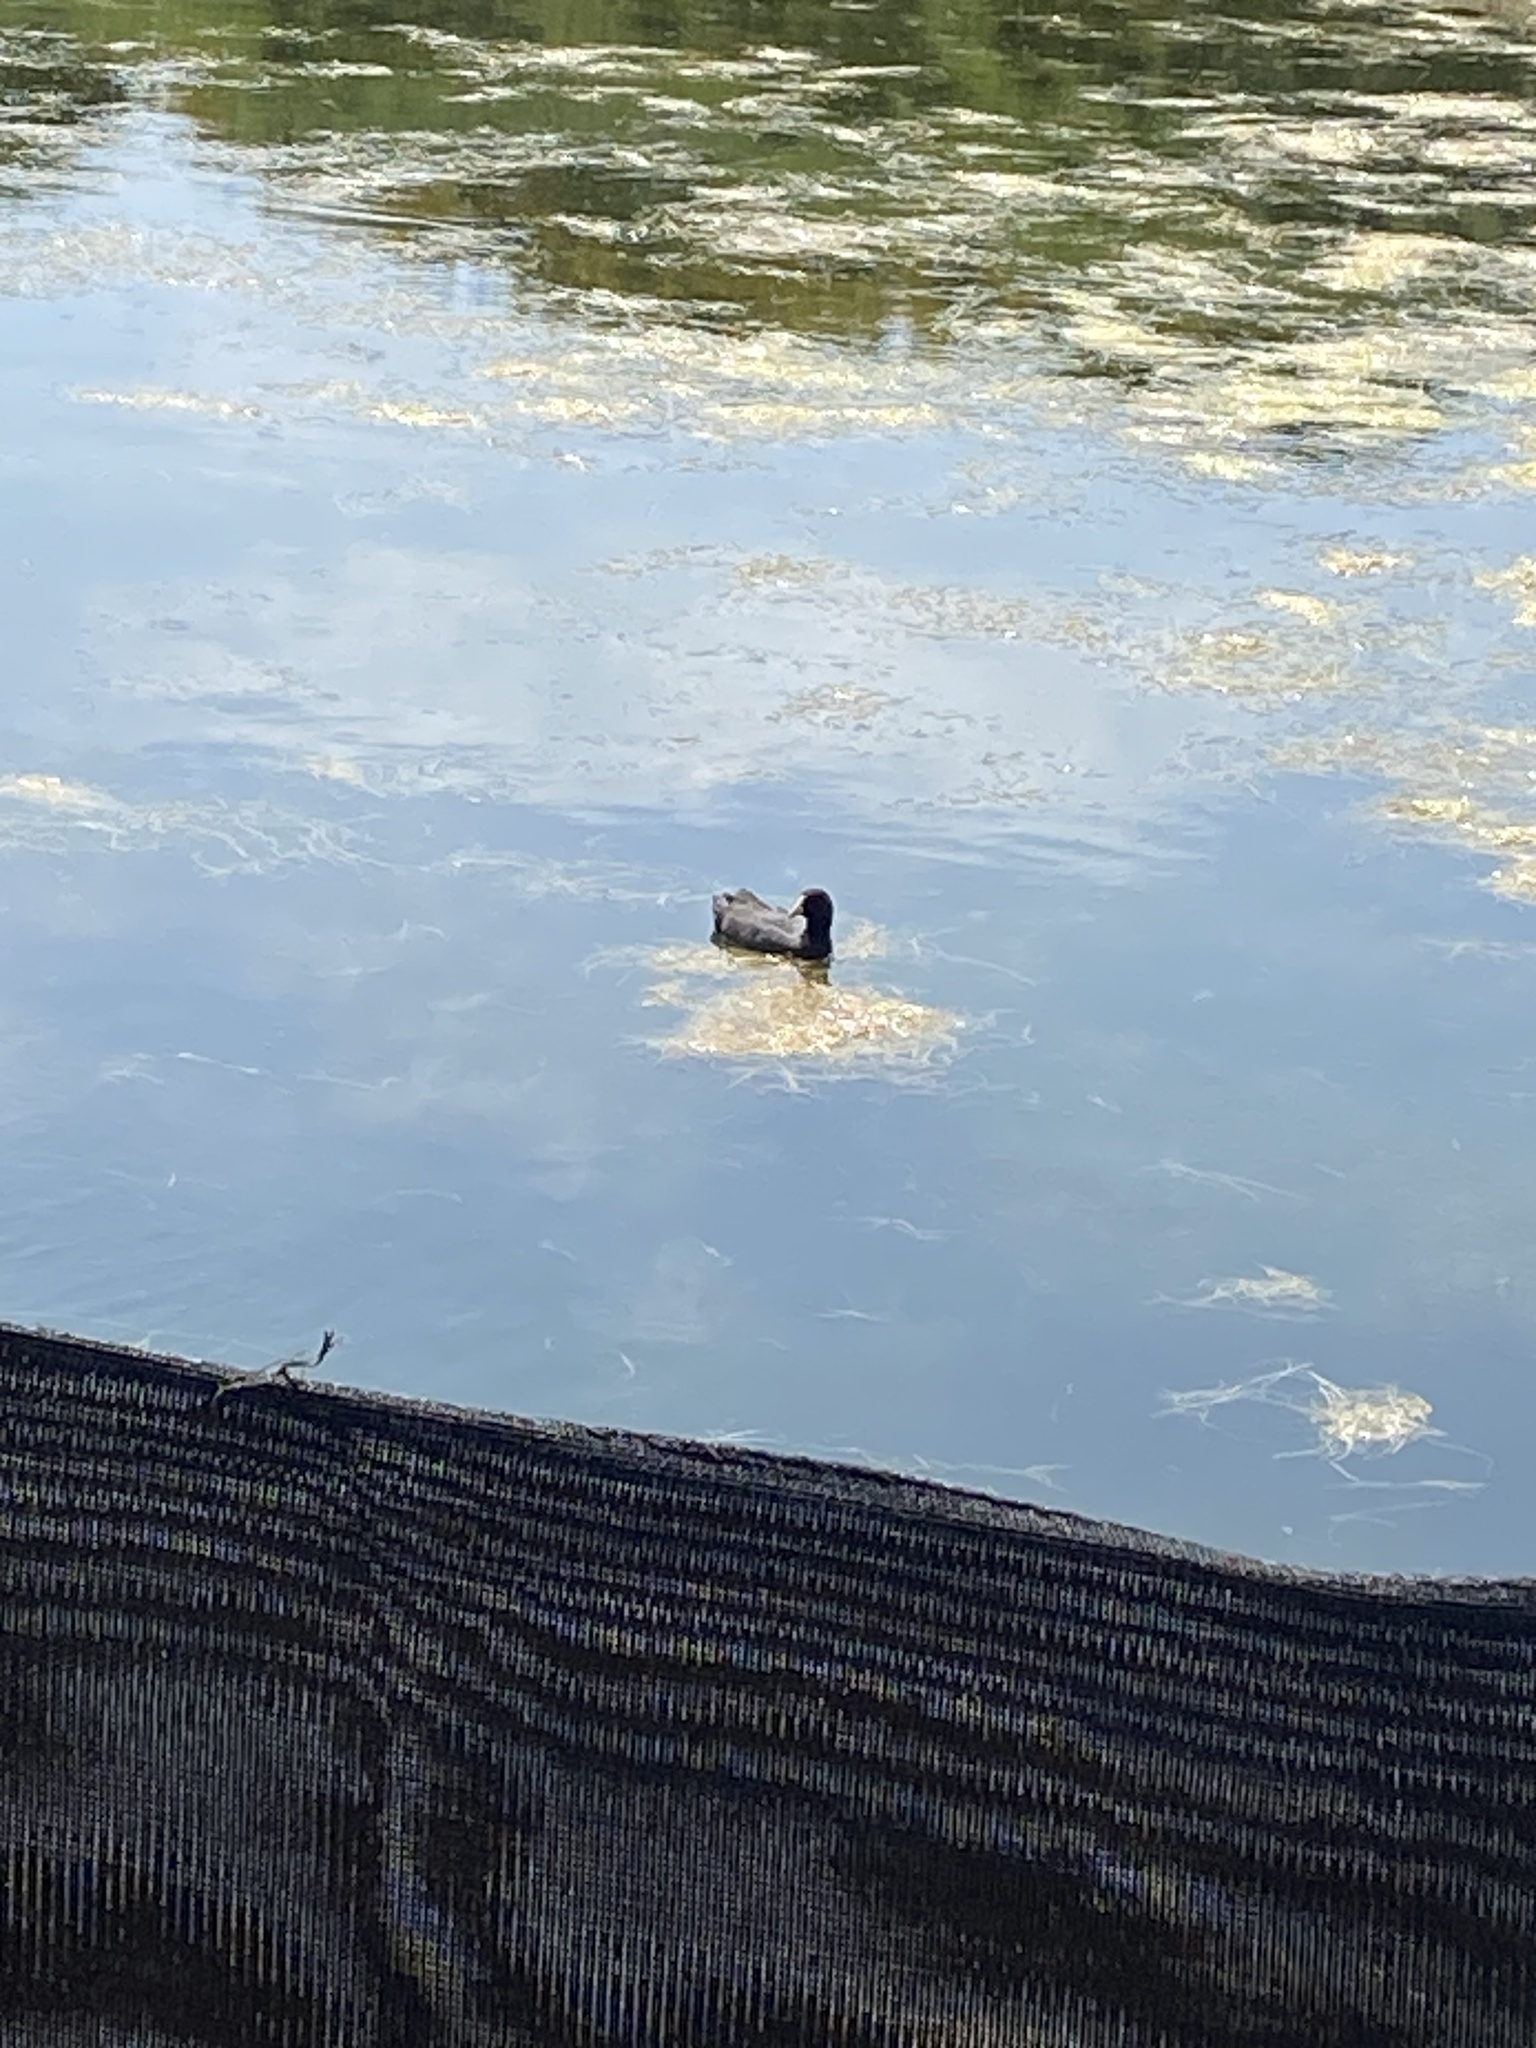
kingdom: Animalia
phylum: Chordata
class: Aves
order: Gruiformes
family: Rallidae
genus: Fulica
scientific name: Fulica leucoptera
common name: White-winged coot
